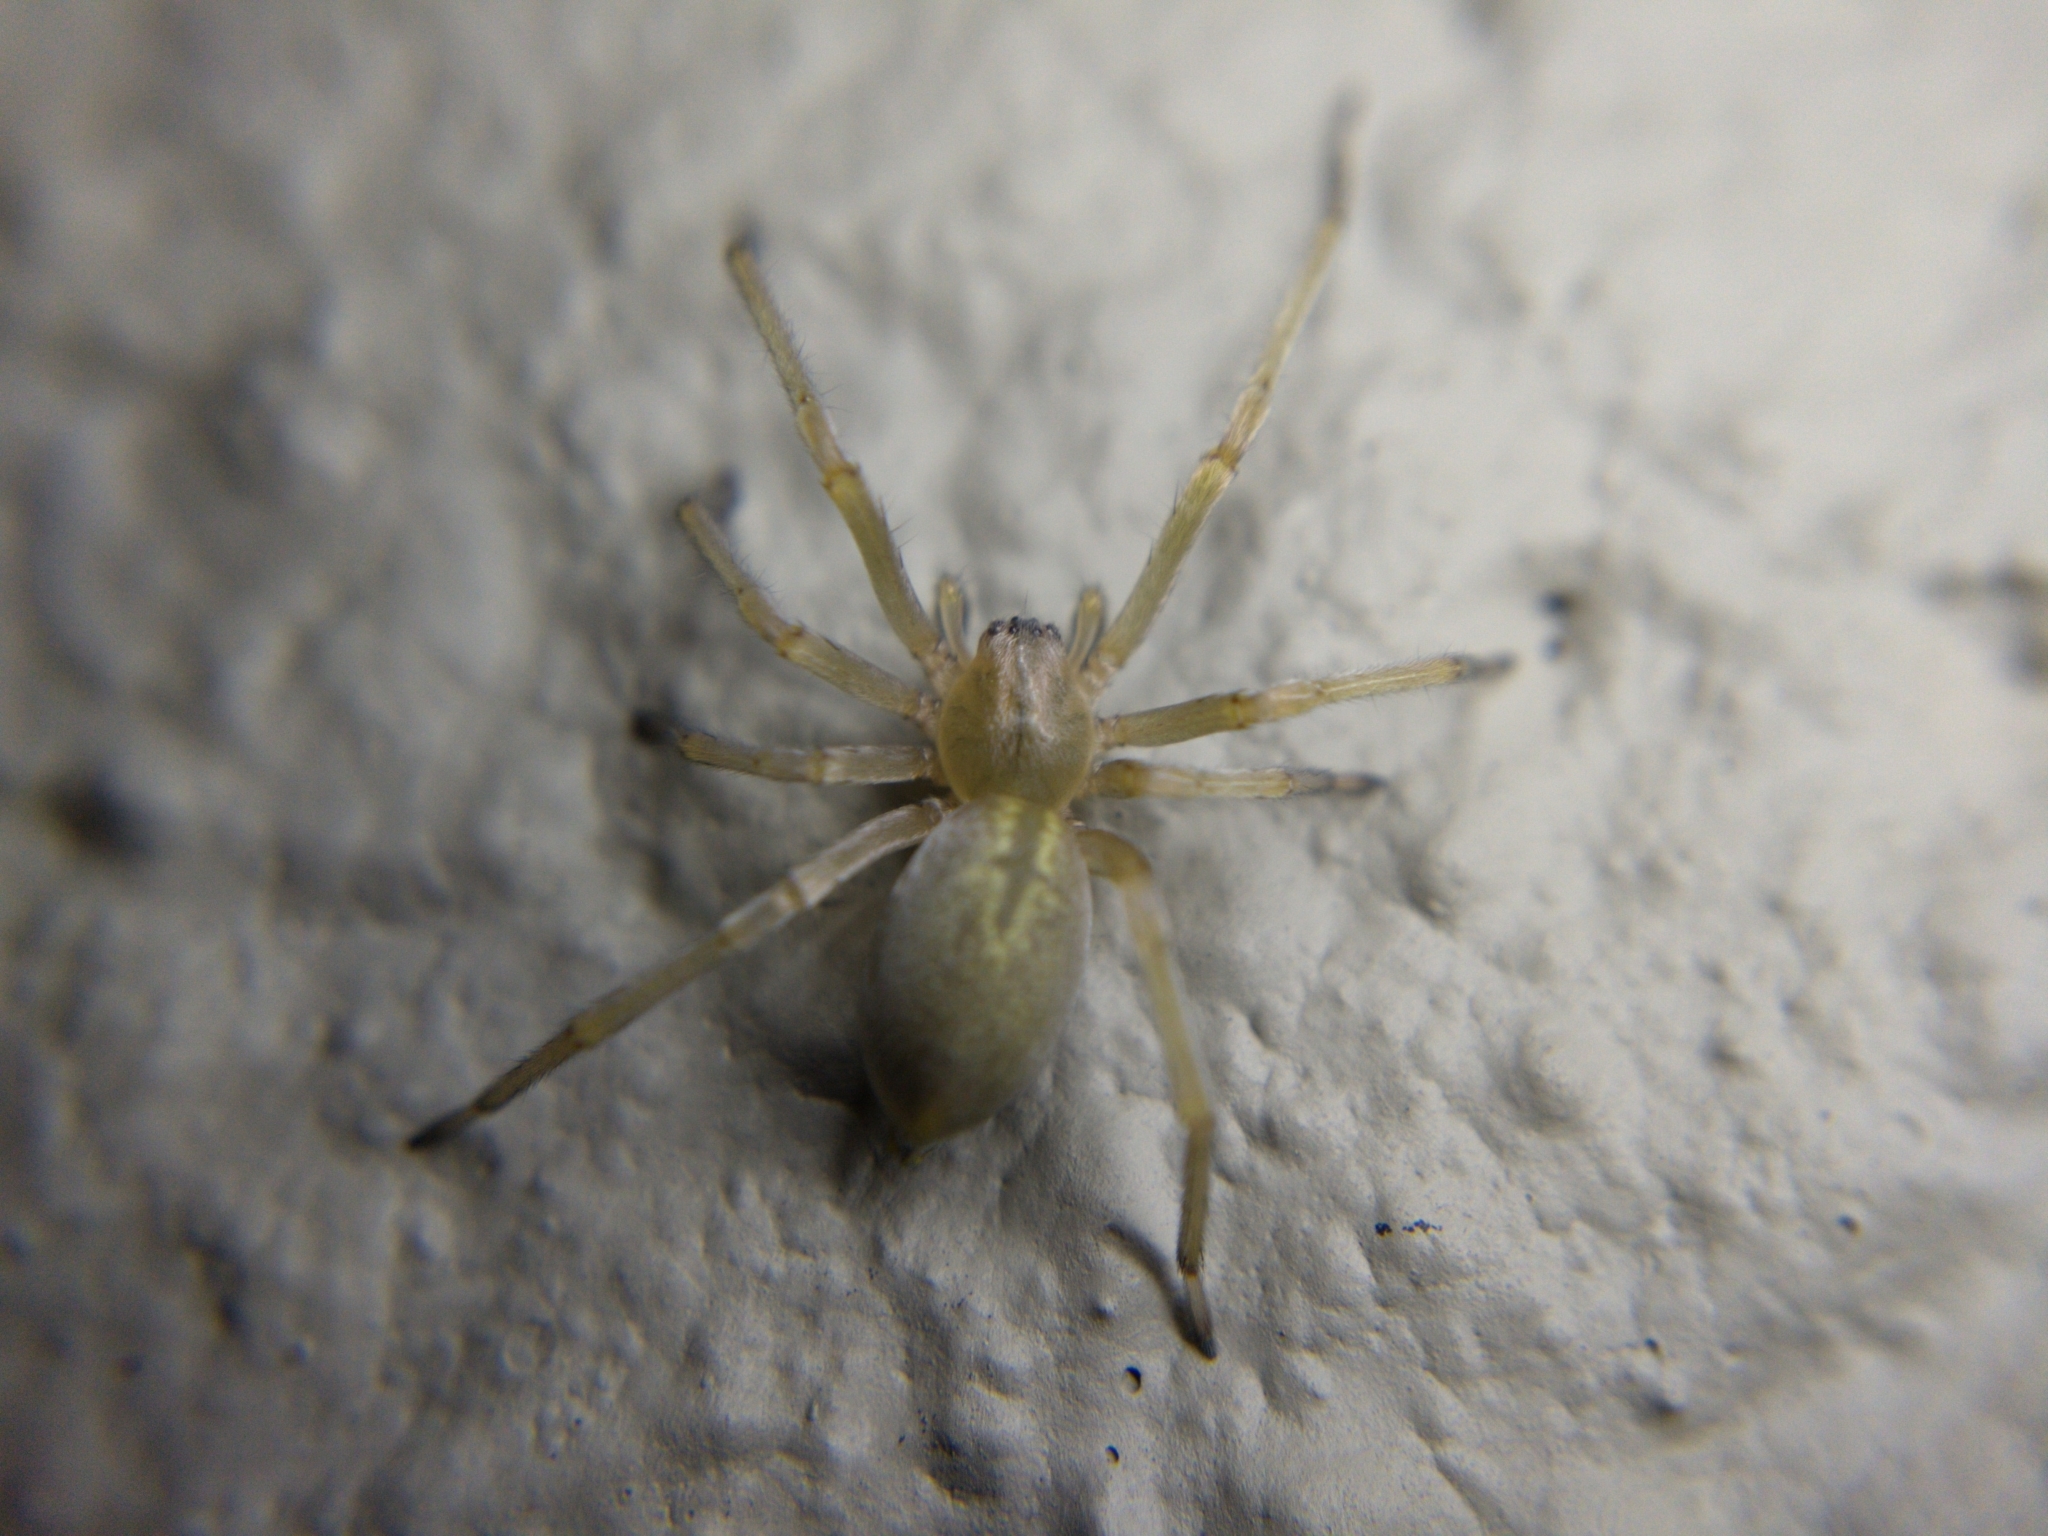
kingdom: Animalia
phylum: Arthropoda
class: Arachnida
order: Araneae
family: Cheiracanthiidae
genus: Cheiracanthium
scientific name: Cheiracanthium
